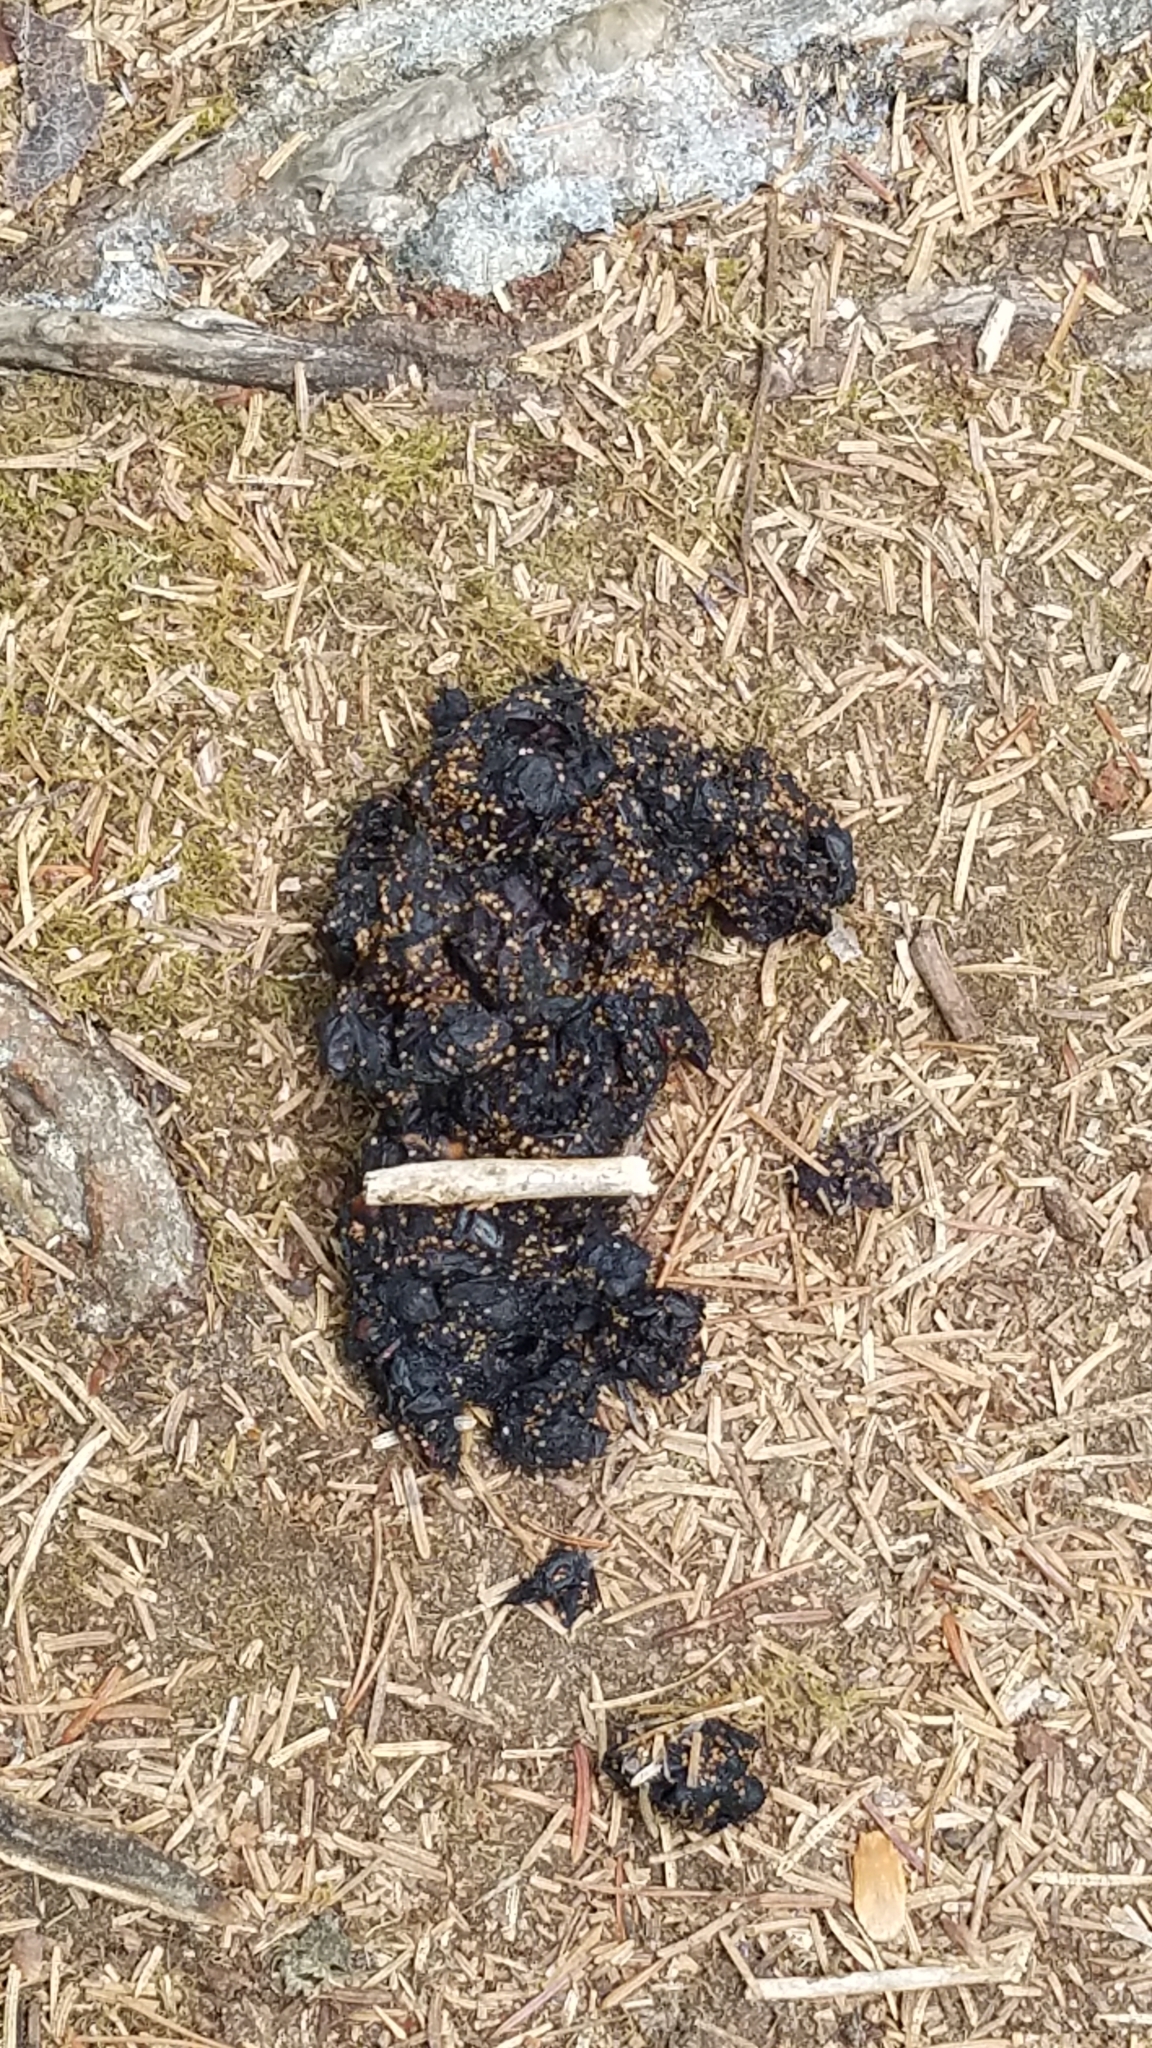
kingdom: Animalia
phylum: Chordata
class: Mammalia
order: Carnivora
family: Ursidae
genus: Ursus
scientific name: Ursus americanus
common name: American black bear
